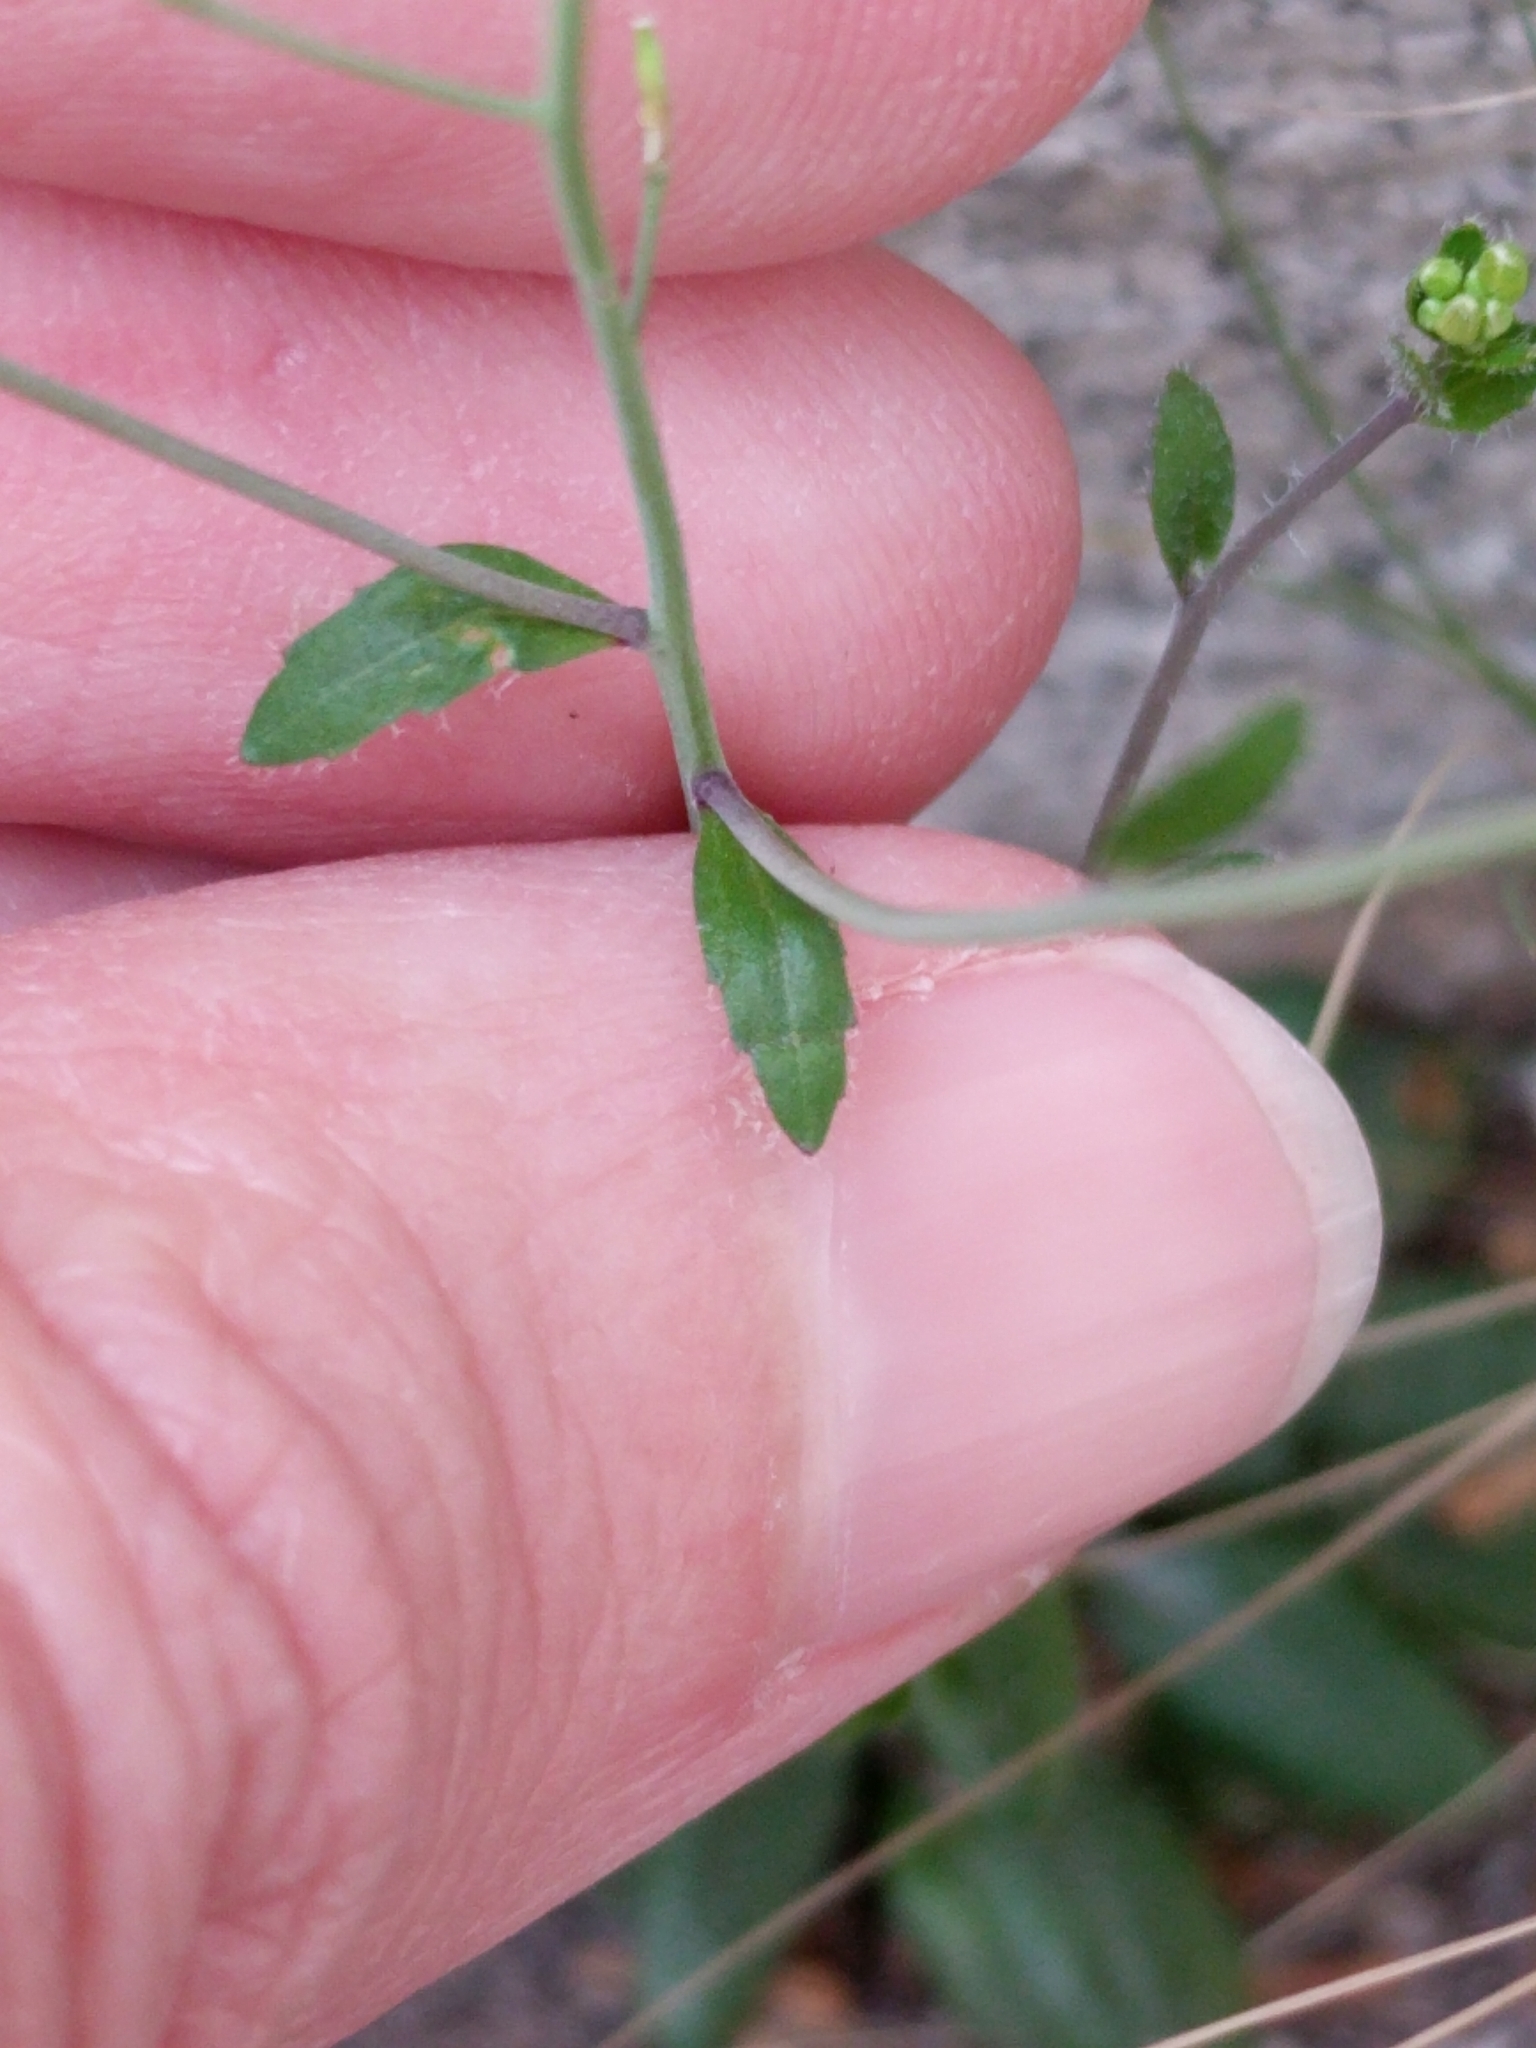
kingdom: Plantae
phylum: Tracheophyta
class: Magnoliopsida
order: Brassicales
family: Brassicaceae
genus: Arabidopsis
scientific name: Arabidopsis thaliana
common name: Thale cress
